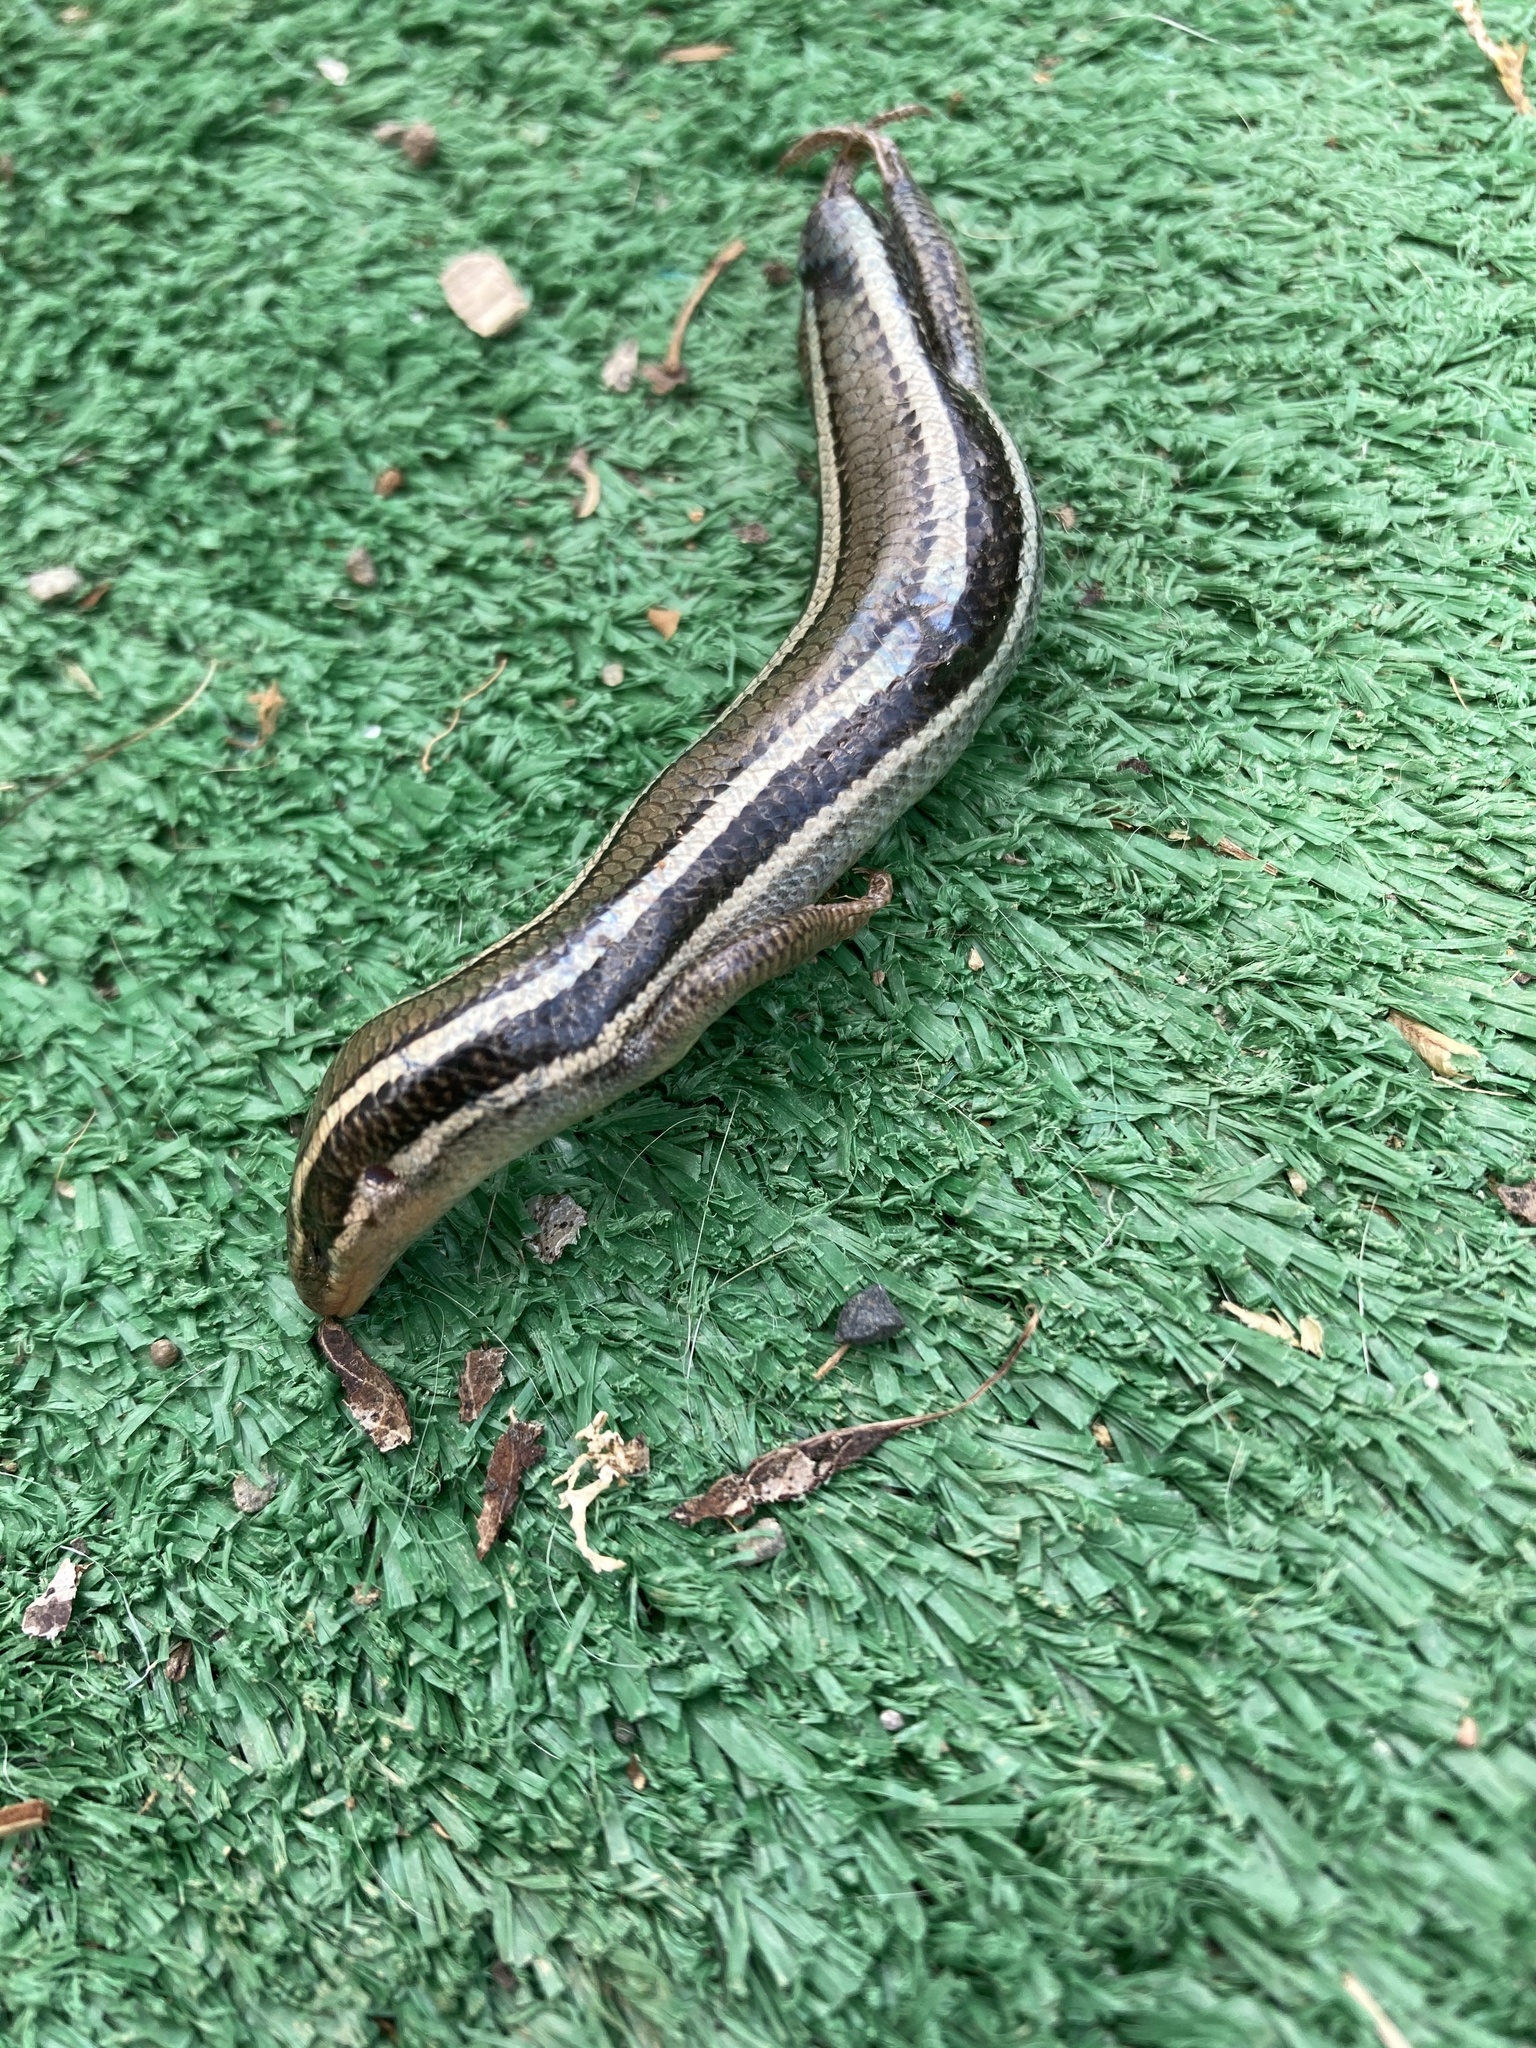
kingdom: Animalia
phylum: Chordata
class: Squamata
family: Scincidae
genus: Plestiodon
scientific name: Plestiodon skiltonianus
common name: Coronado island skink [interparietalis]
